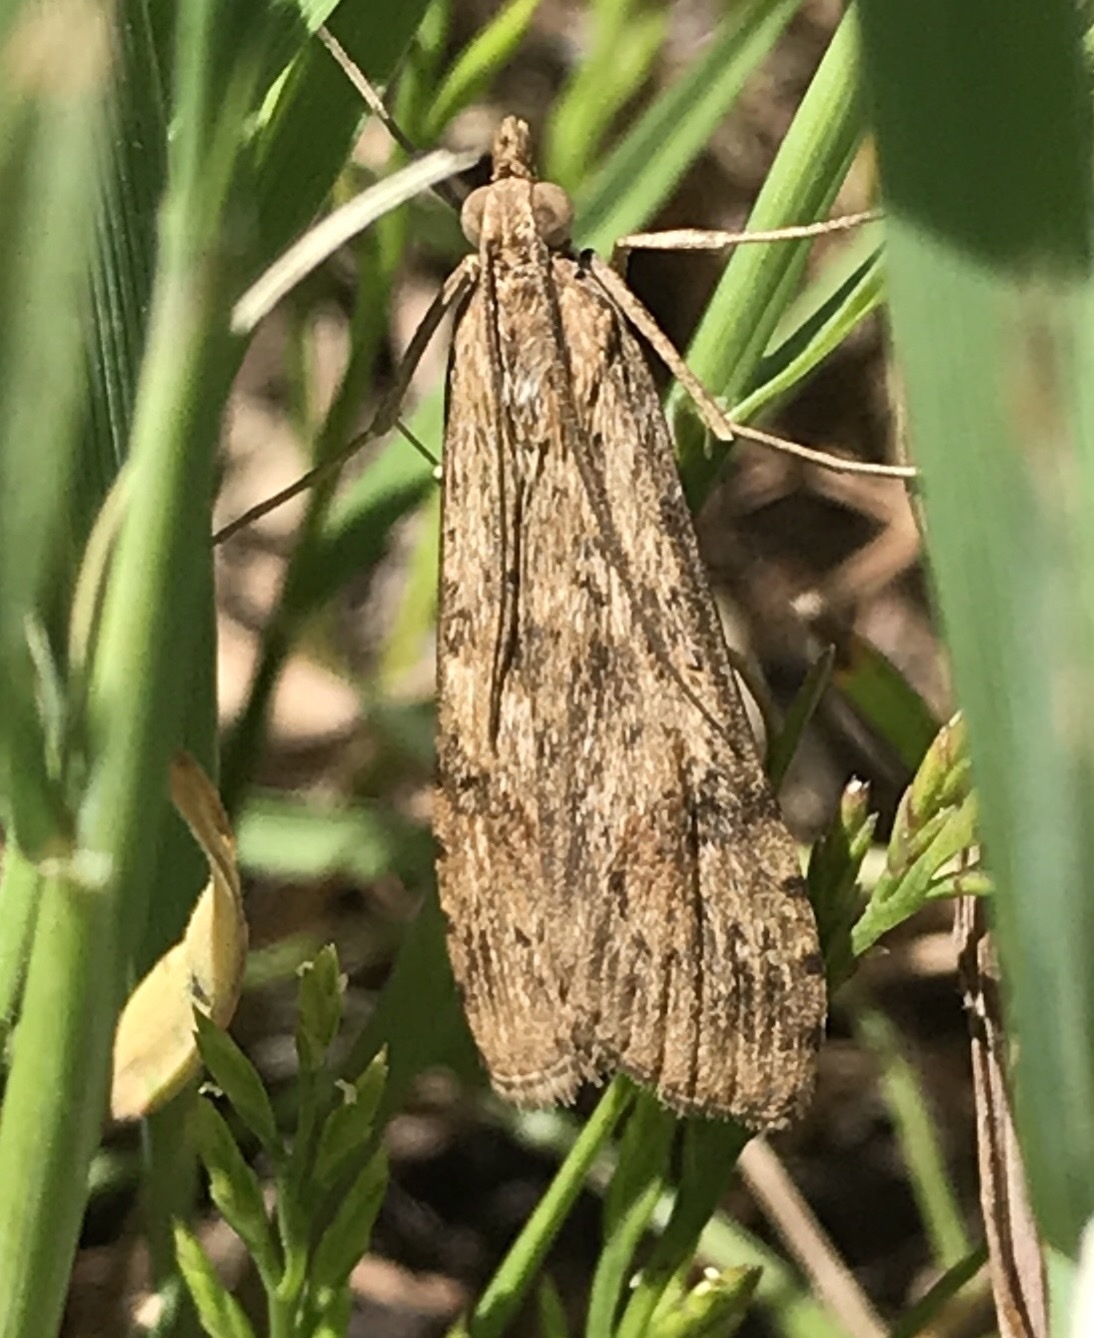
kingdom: Animalia
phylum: Arthropoda
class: Insecta
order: Lepidoptera
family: Crambidae
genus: Nomophila
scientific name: Nomophila nearctica
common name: American rush veneer
